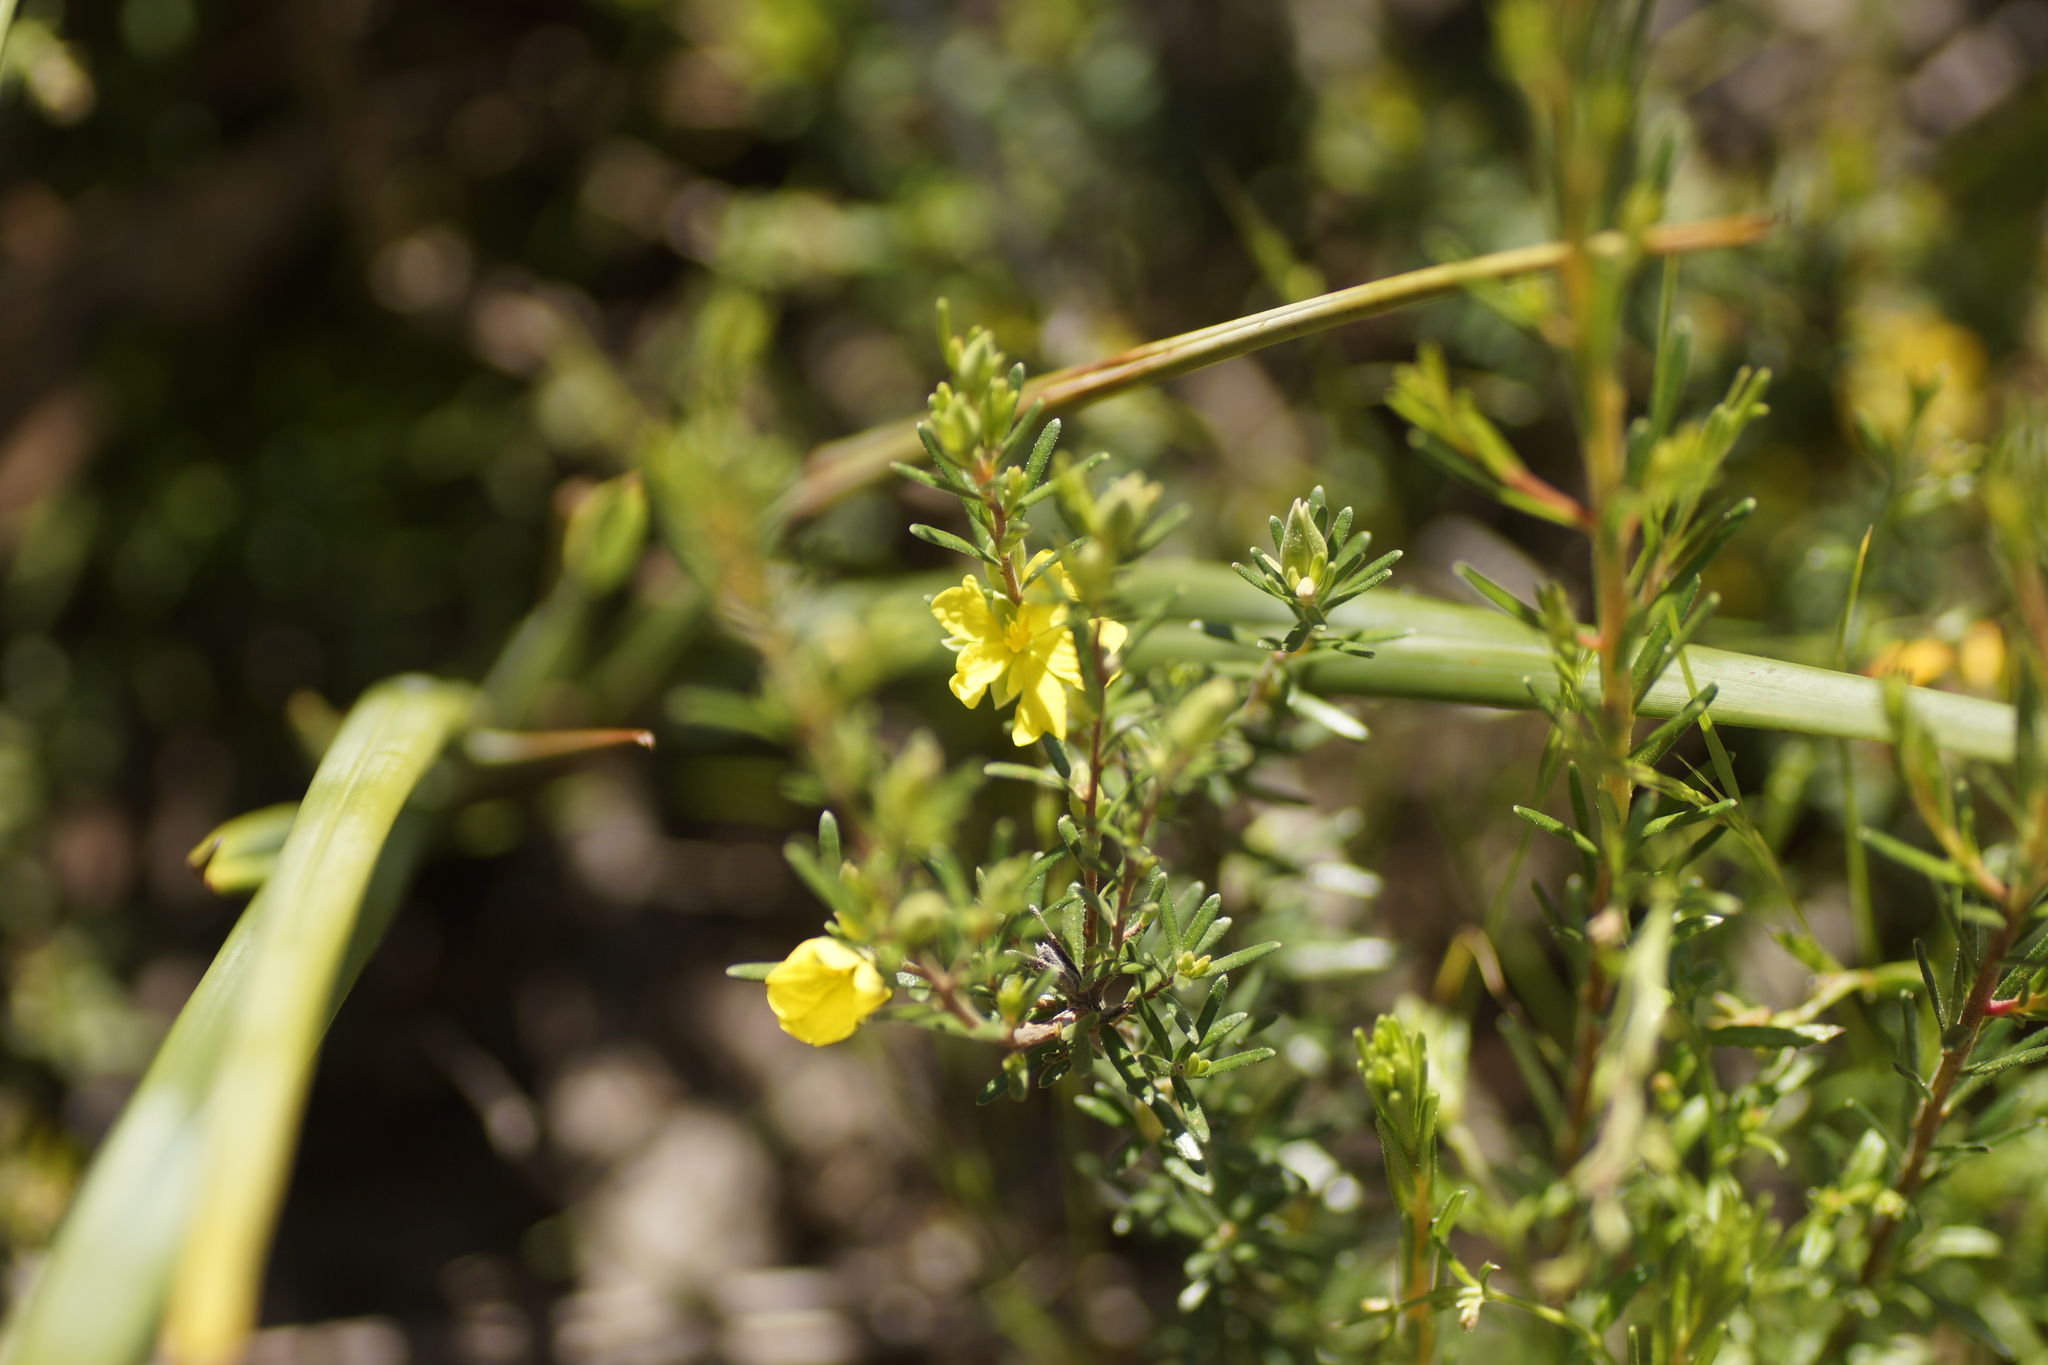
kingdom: Plantae
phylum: Tracheophyta
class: Magnoliopsida
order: Dilleniales
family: Dilleniaceae
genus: Hibbertia
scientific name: Hibbertia riparia
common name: Erect guinea-flower
